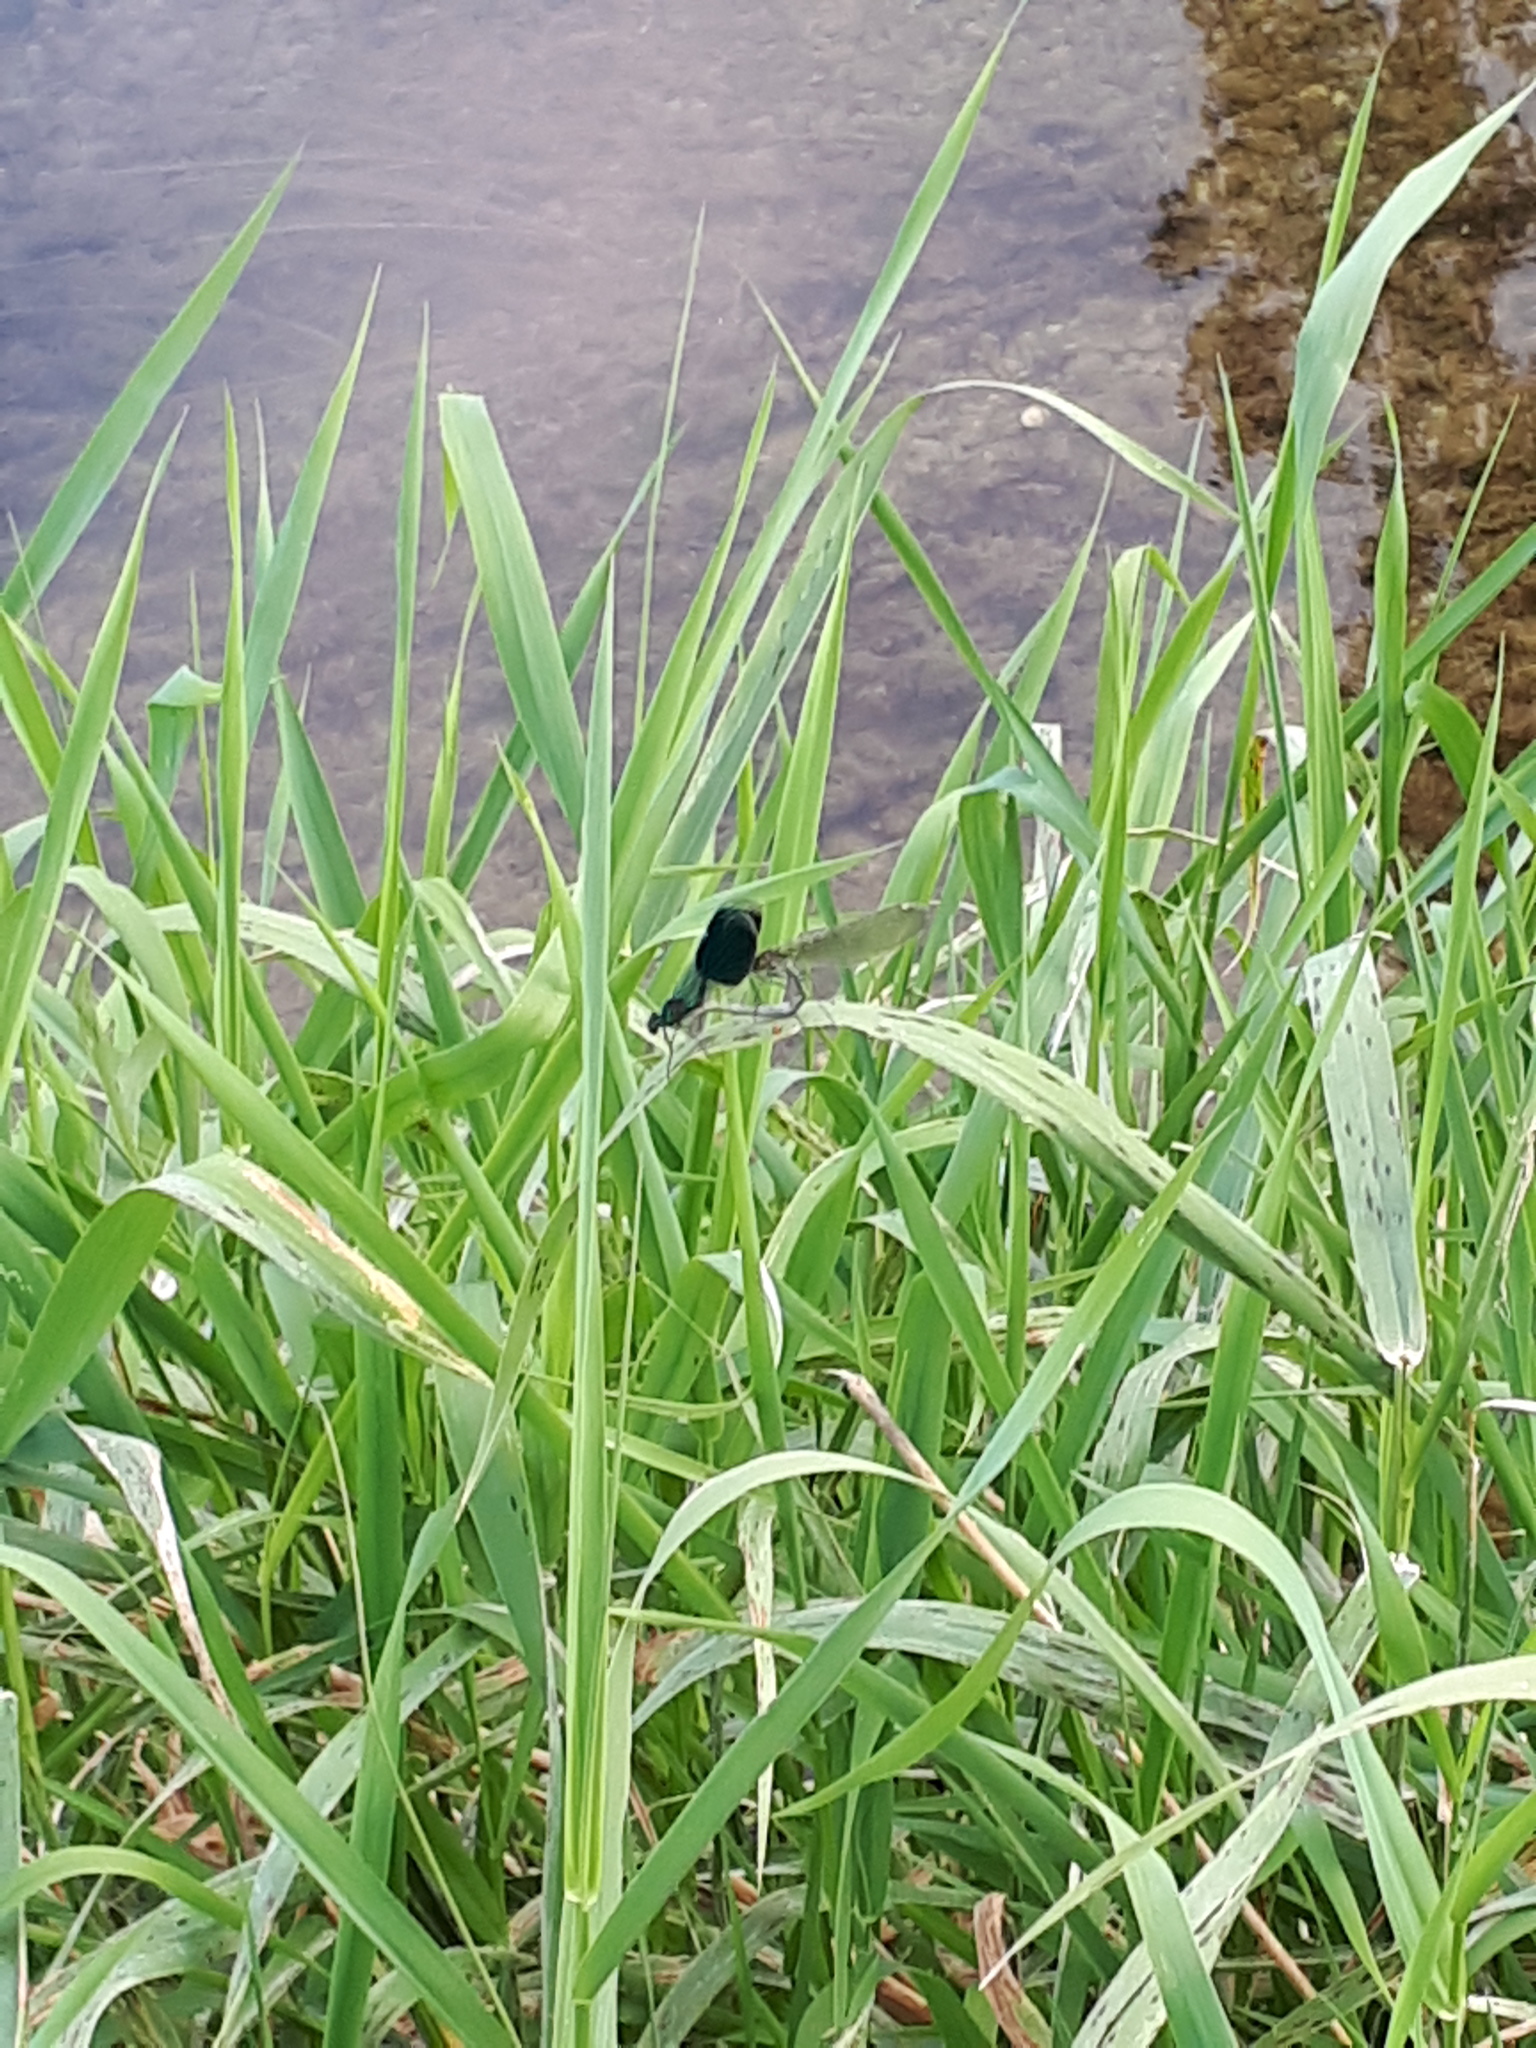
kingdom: Animalia
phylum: Arthropoda
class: Insecta
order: Odonata
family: Calopterygidae
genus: Calopteryx
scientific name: Calopteryx splendens
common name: Banded demoiselle
